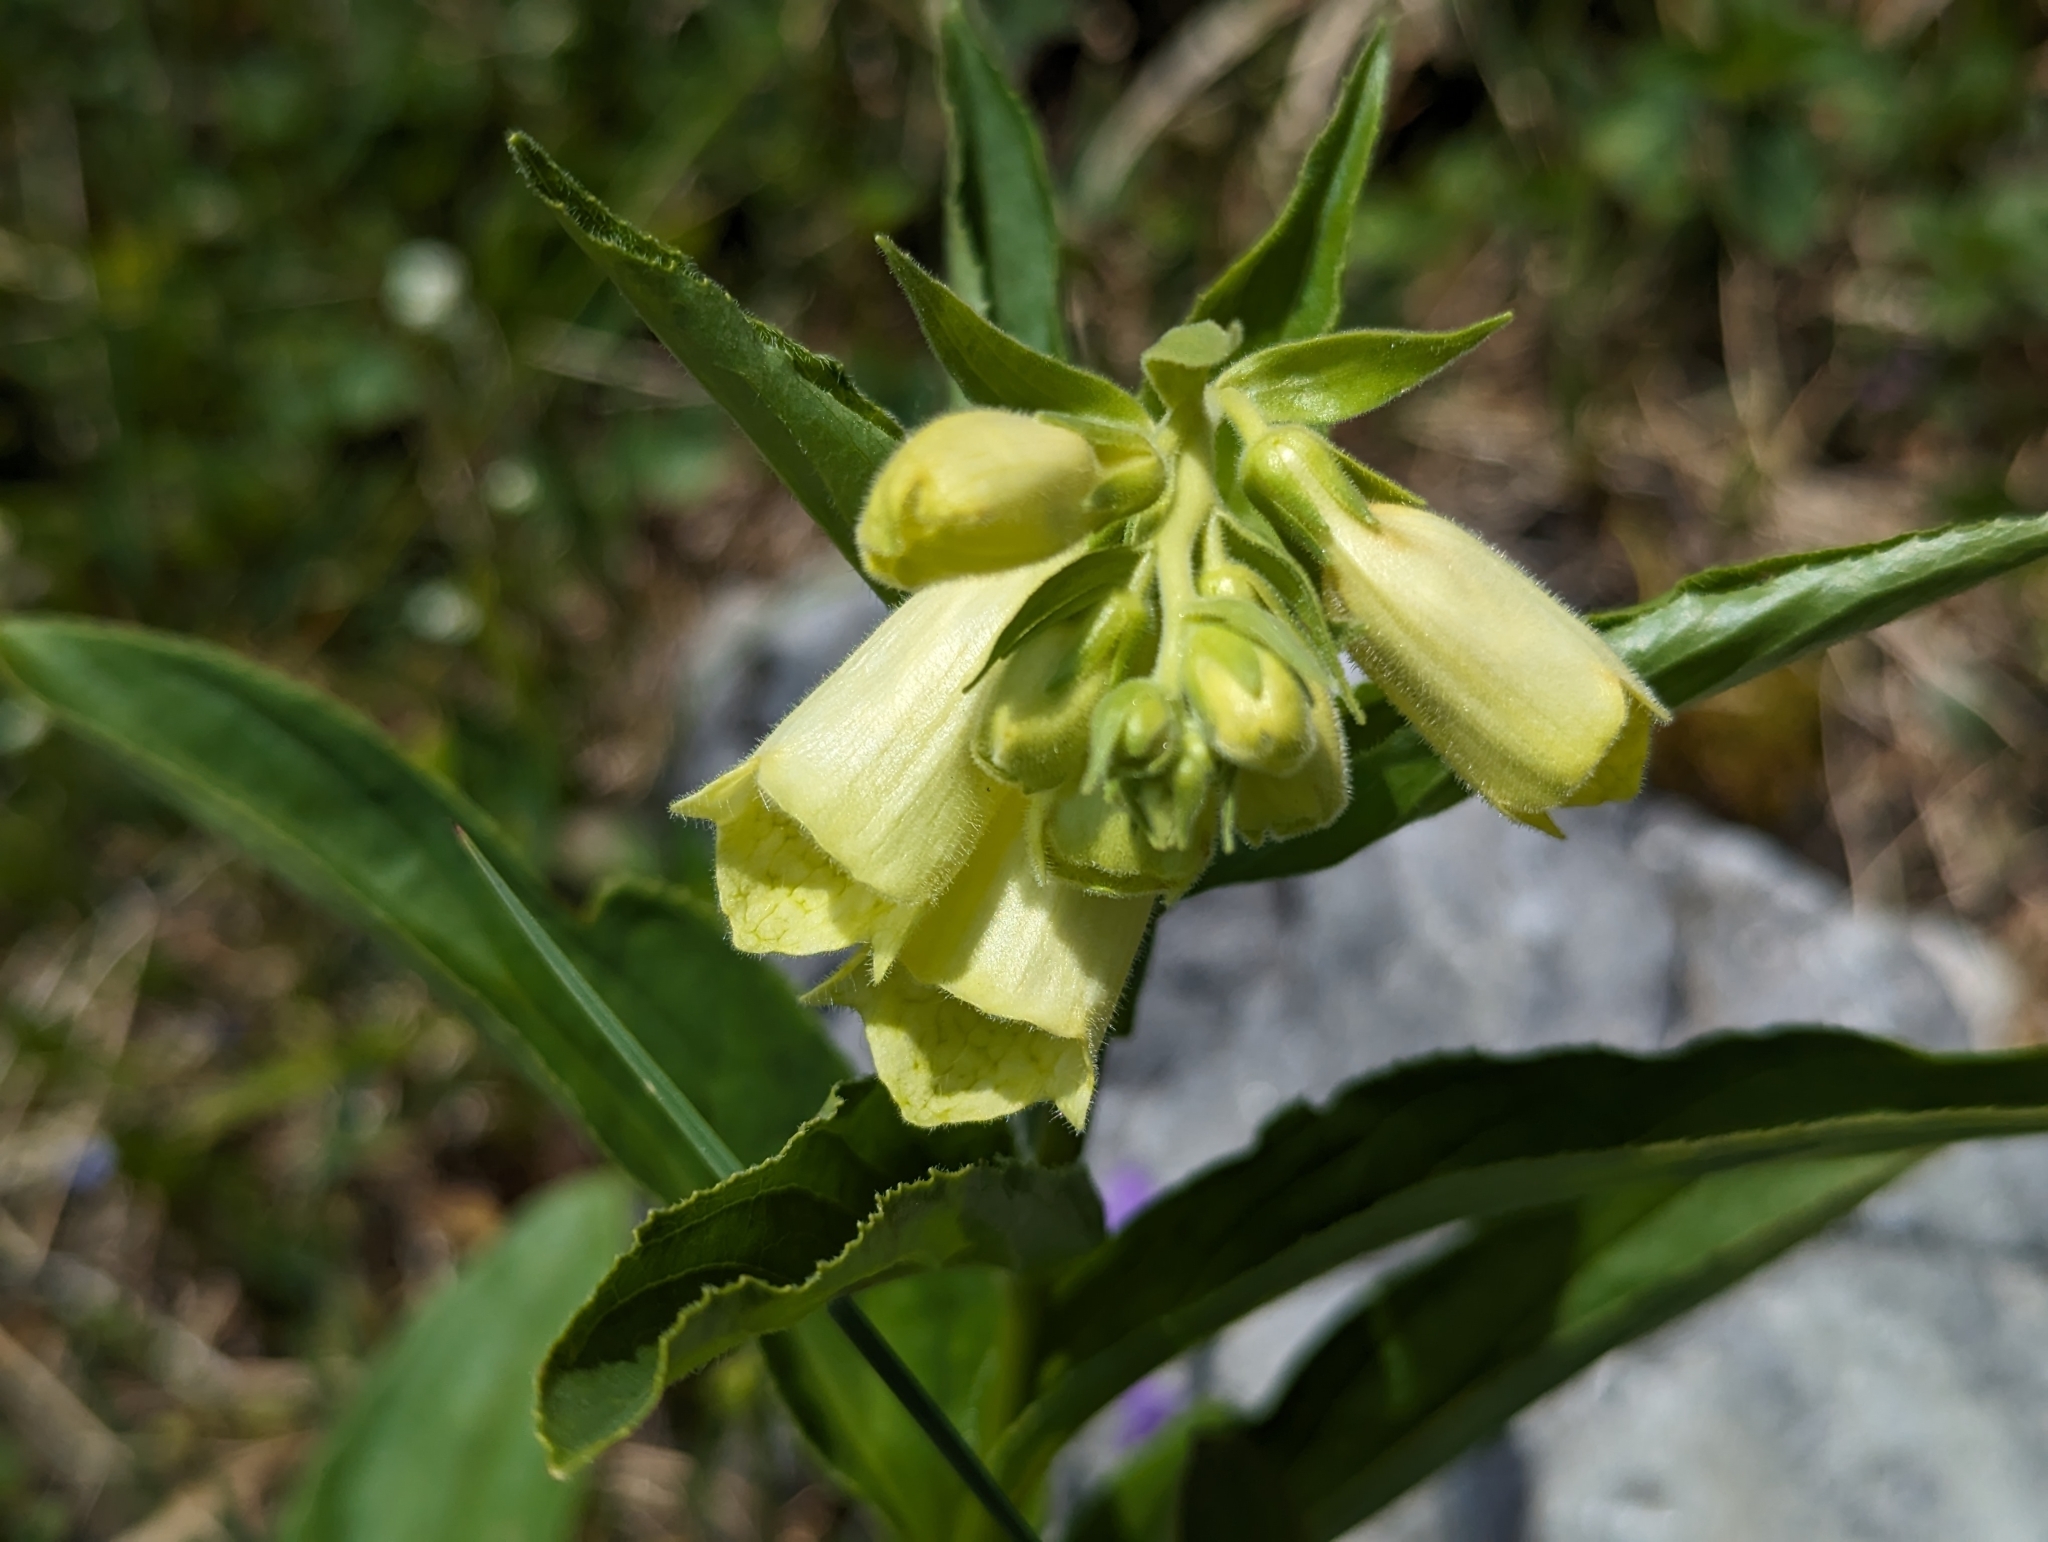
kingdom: Plantae
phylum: Tracheophyta
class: Magnoliopsida
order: Lamiales
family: Plantaginaceae
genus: Digitalis
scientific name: Digitalis grandiflora
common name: Yellow foxglove
